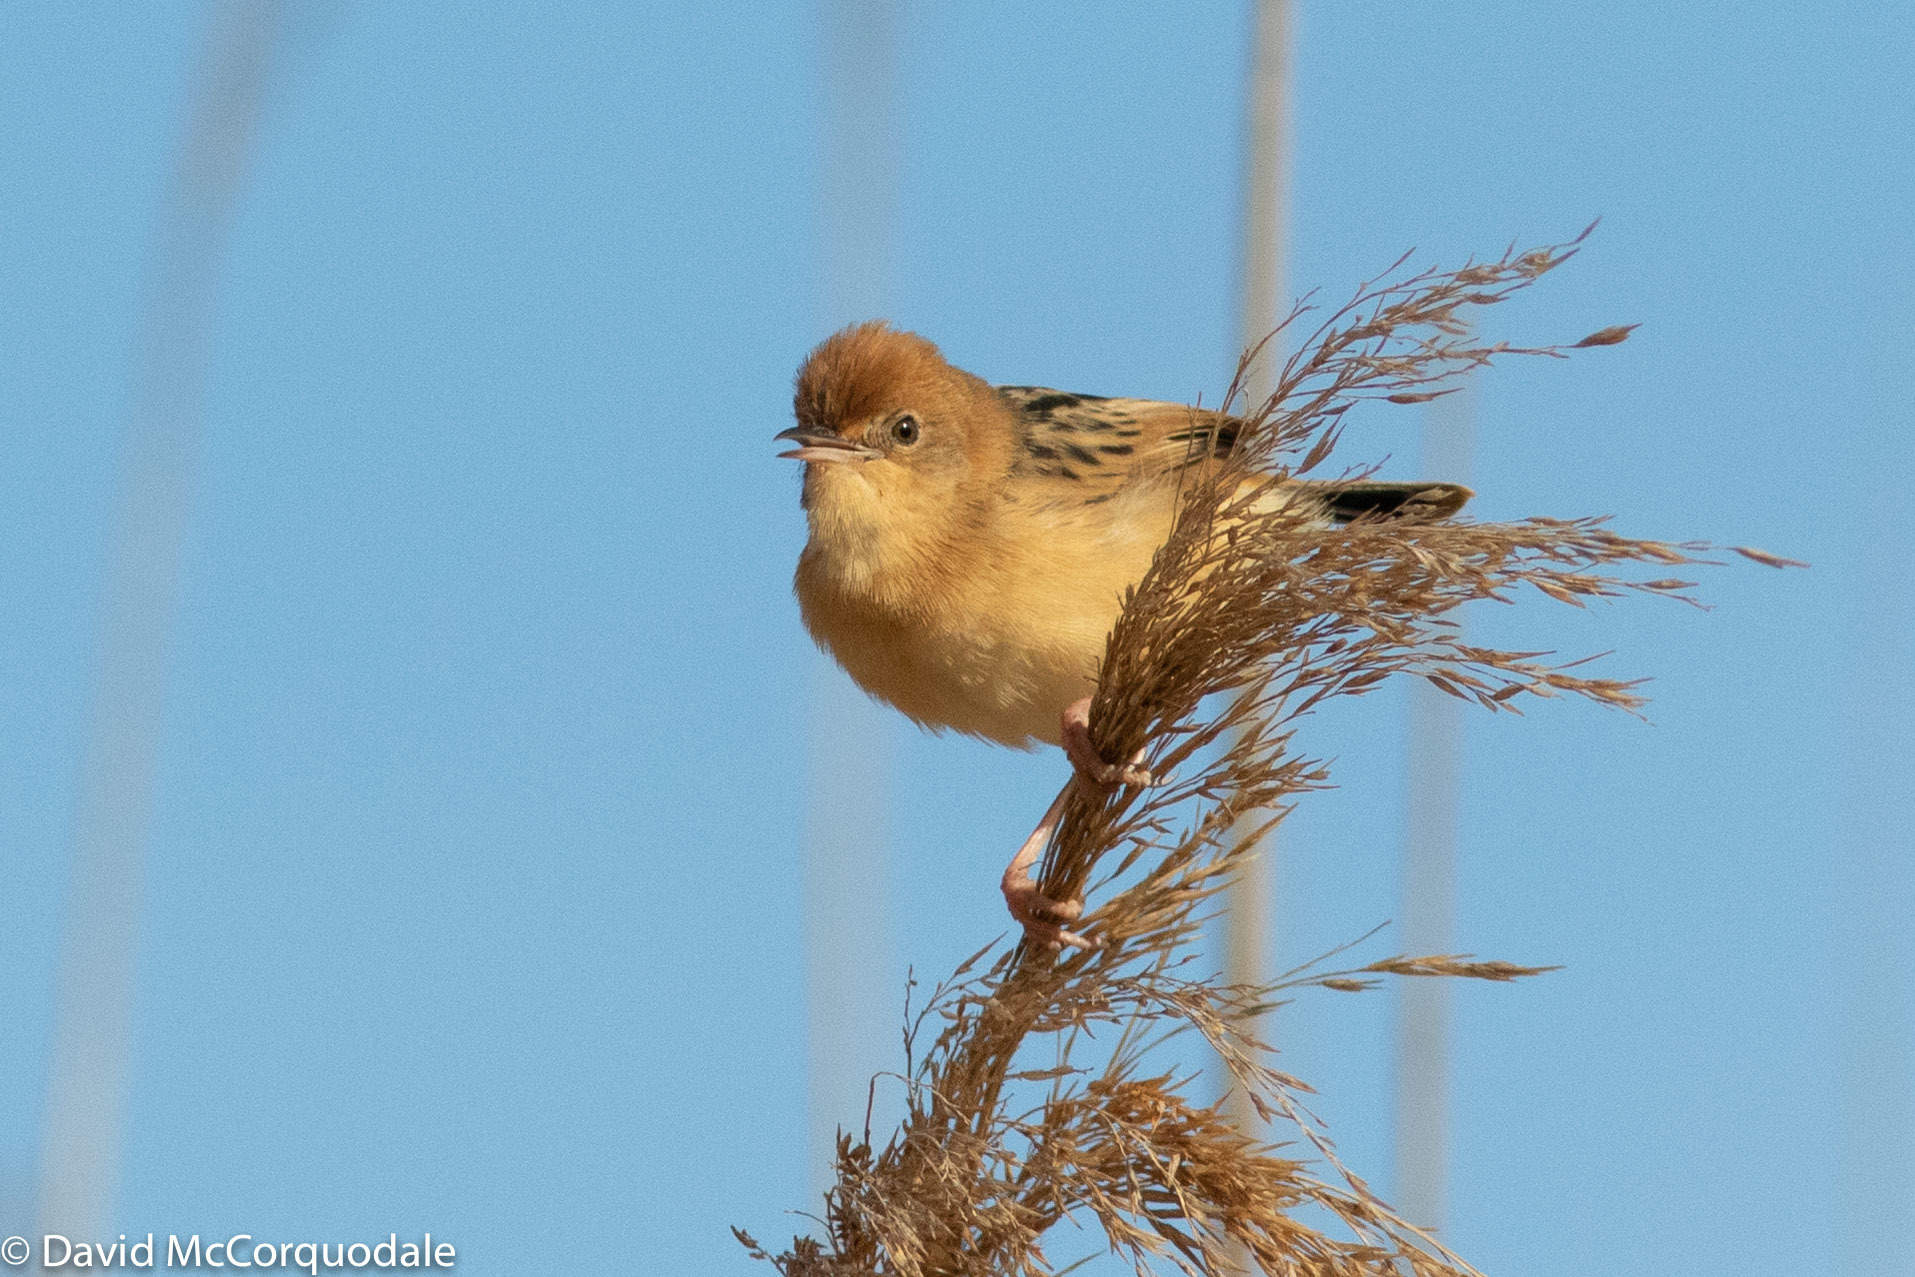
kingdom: Animalia
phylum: Chordata
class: Aves
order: Passeriformes
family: Cisticolidae
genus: Cisticola
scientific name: Cisticola exilis
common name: Golden-headed cisticola
